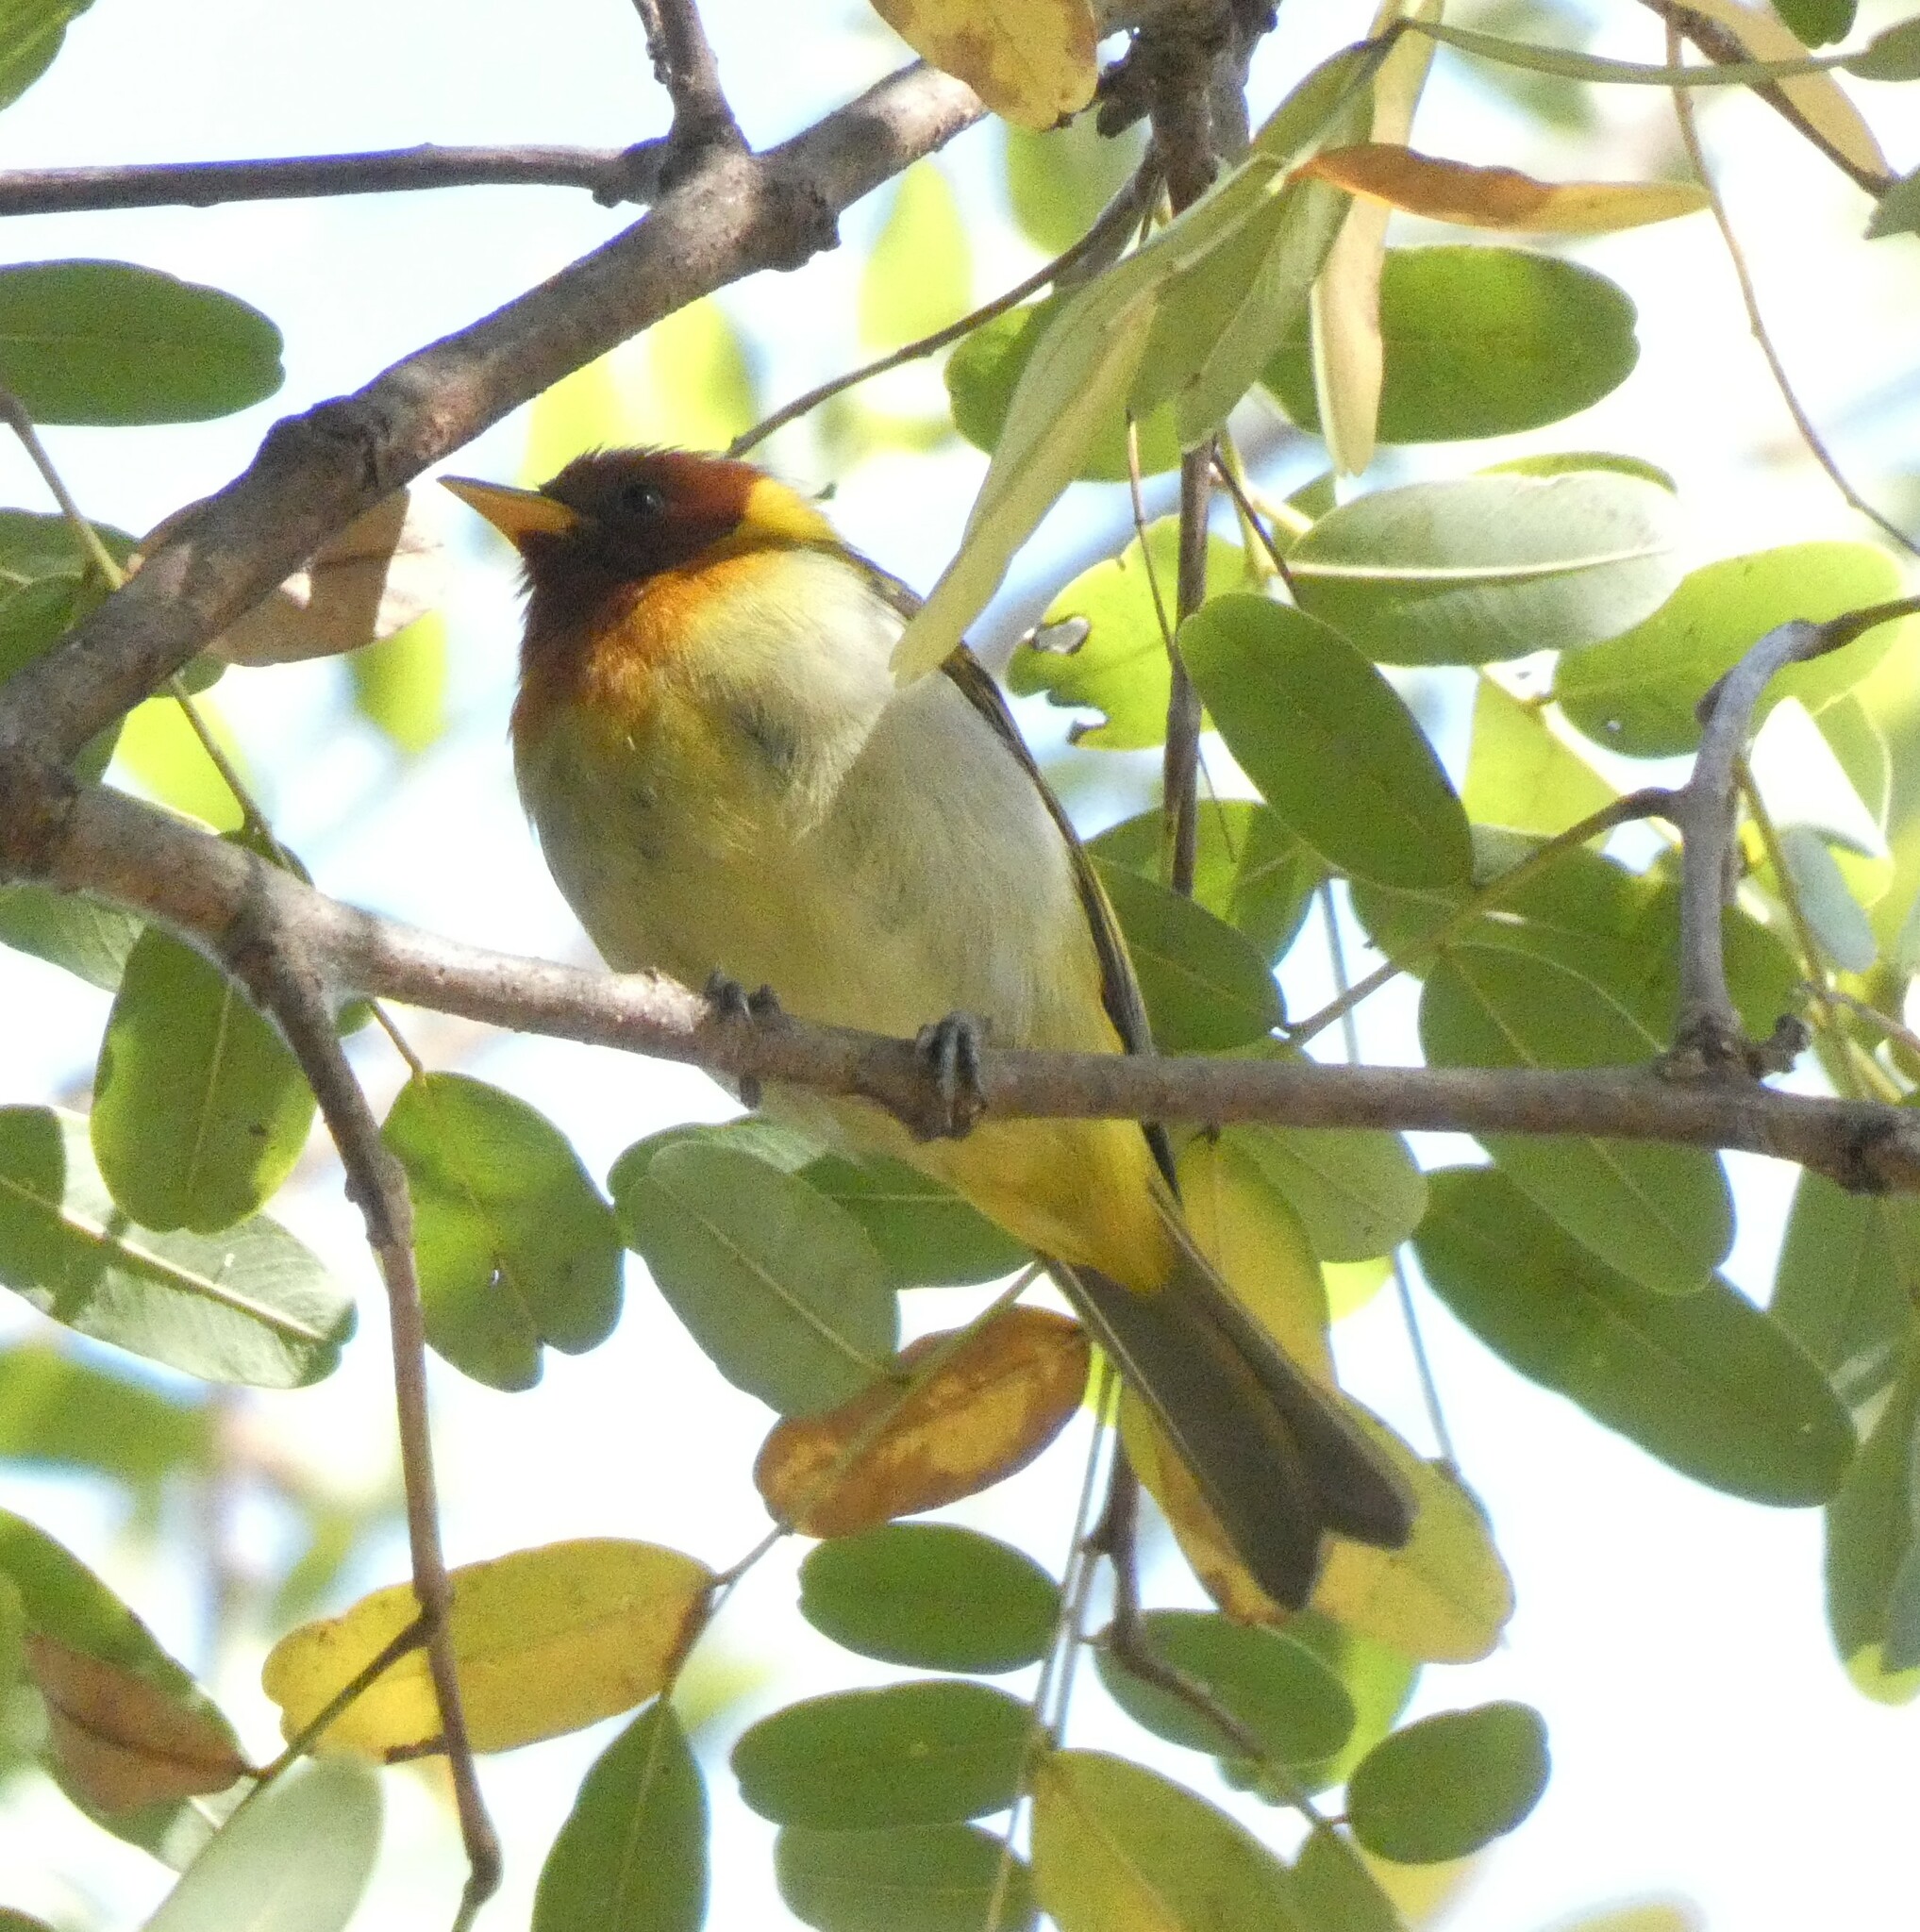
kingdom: Animalia
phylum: Chordata
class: Aves
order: Passeriformes
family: Thraupidae
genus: Hemithraupis
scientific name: Hemithraupis ruficapilla
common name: Rufous-headed tanager
